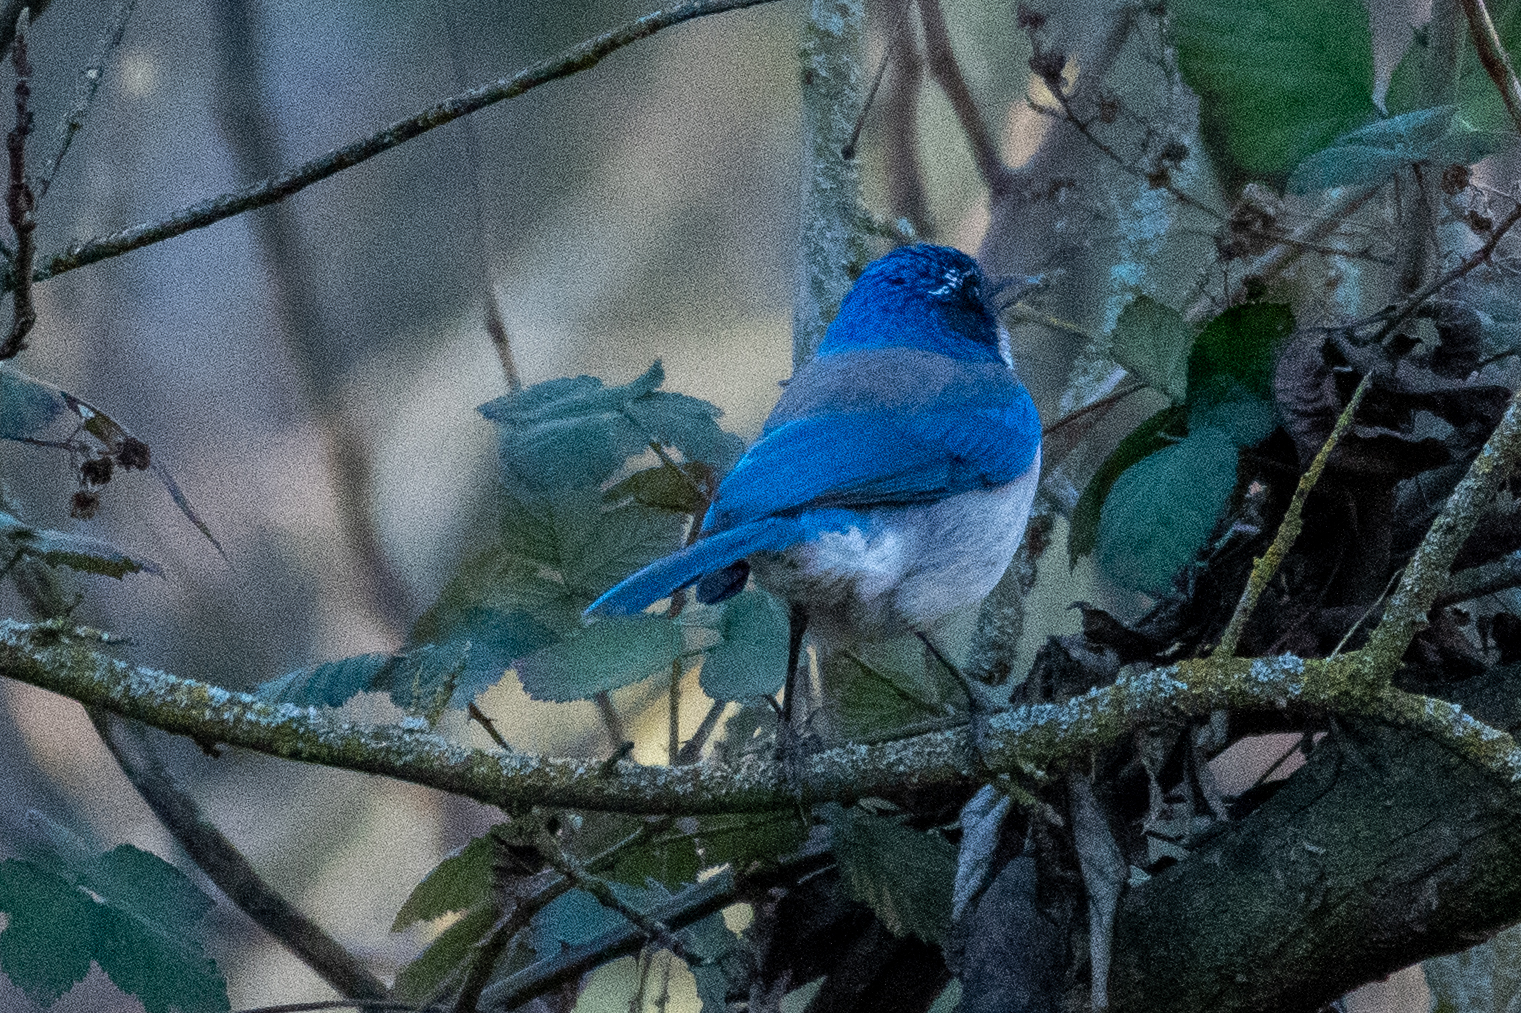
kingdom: Animalia
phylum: Chordata
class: Aves
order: Passeriformes
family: Corvidae
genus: Aphelocoma
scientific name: Aphelocoma californica
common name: California scrub-jay
